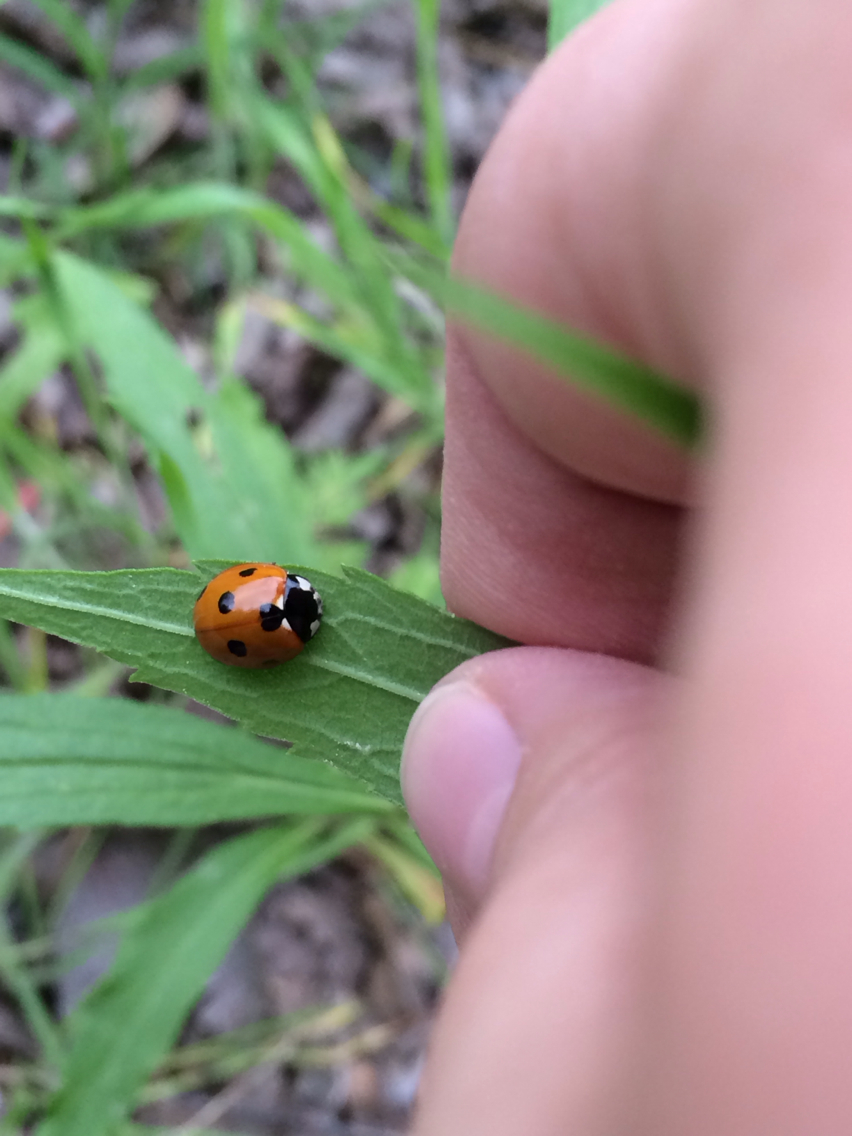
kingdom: Animalia
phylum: Arthropoda
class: Insecta
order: Coleoptera
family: Coccinellidae
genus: Coccinella
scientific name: Coccinella septempunctata
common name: Sevenspotted lady beetle
